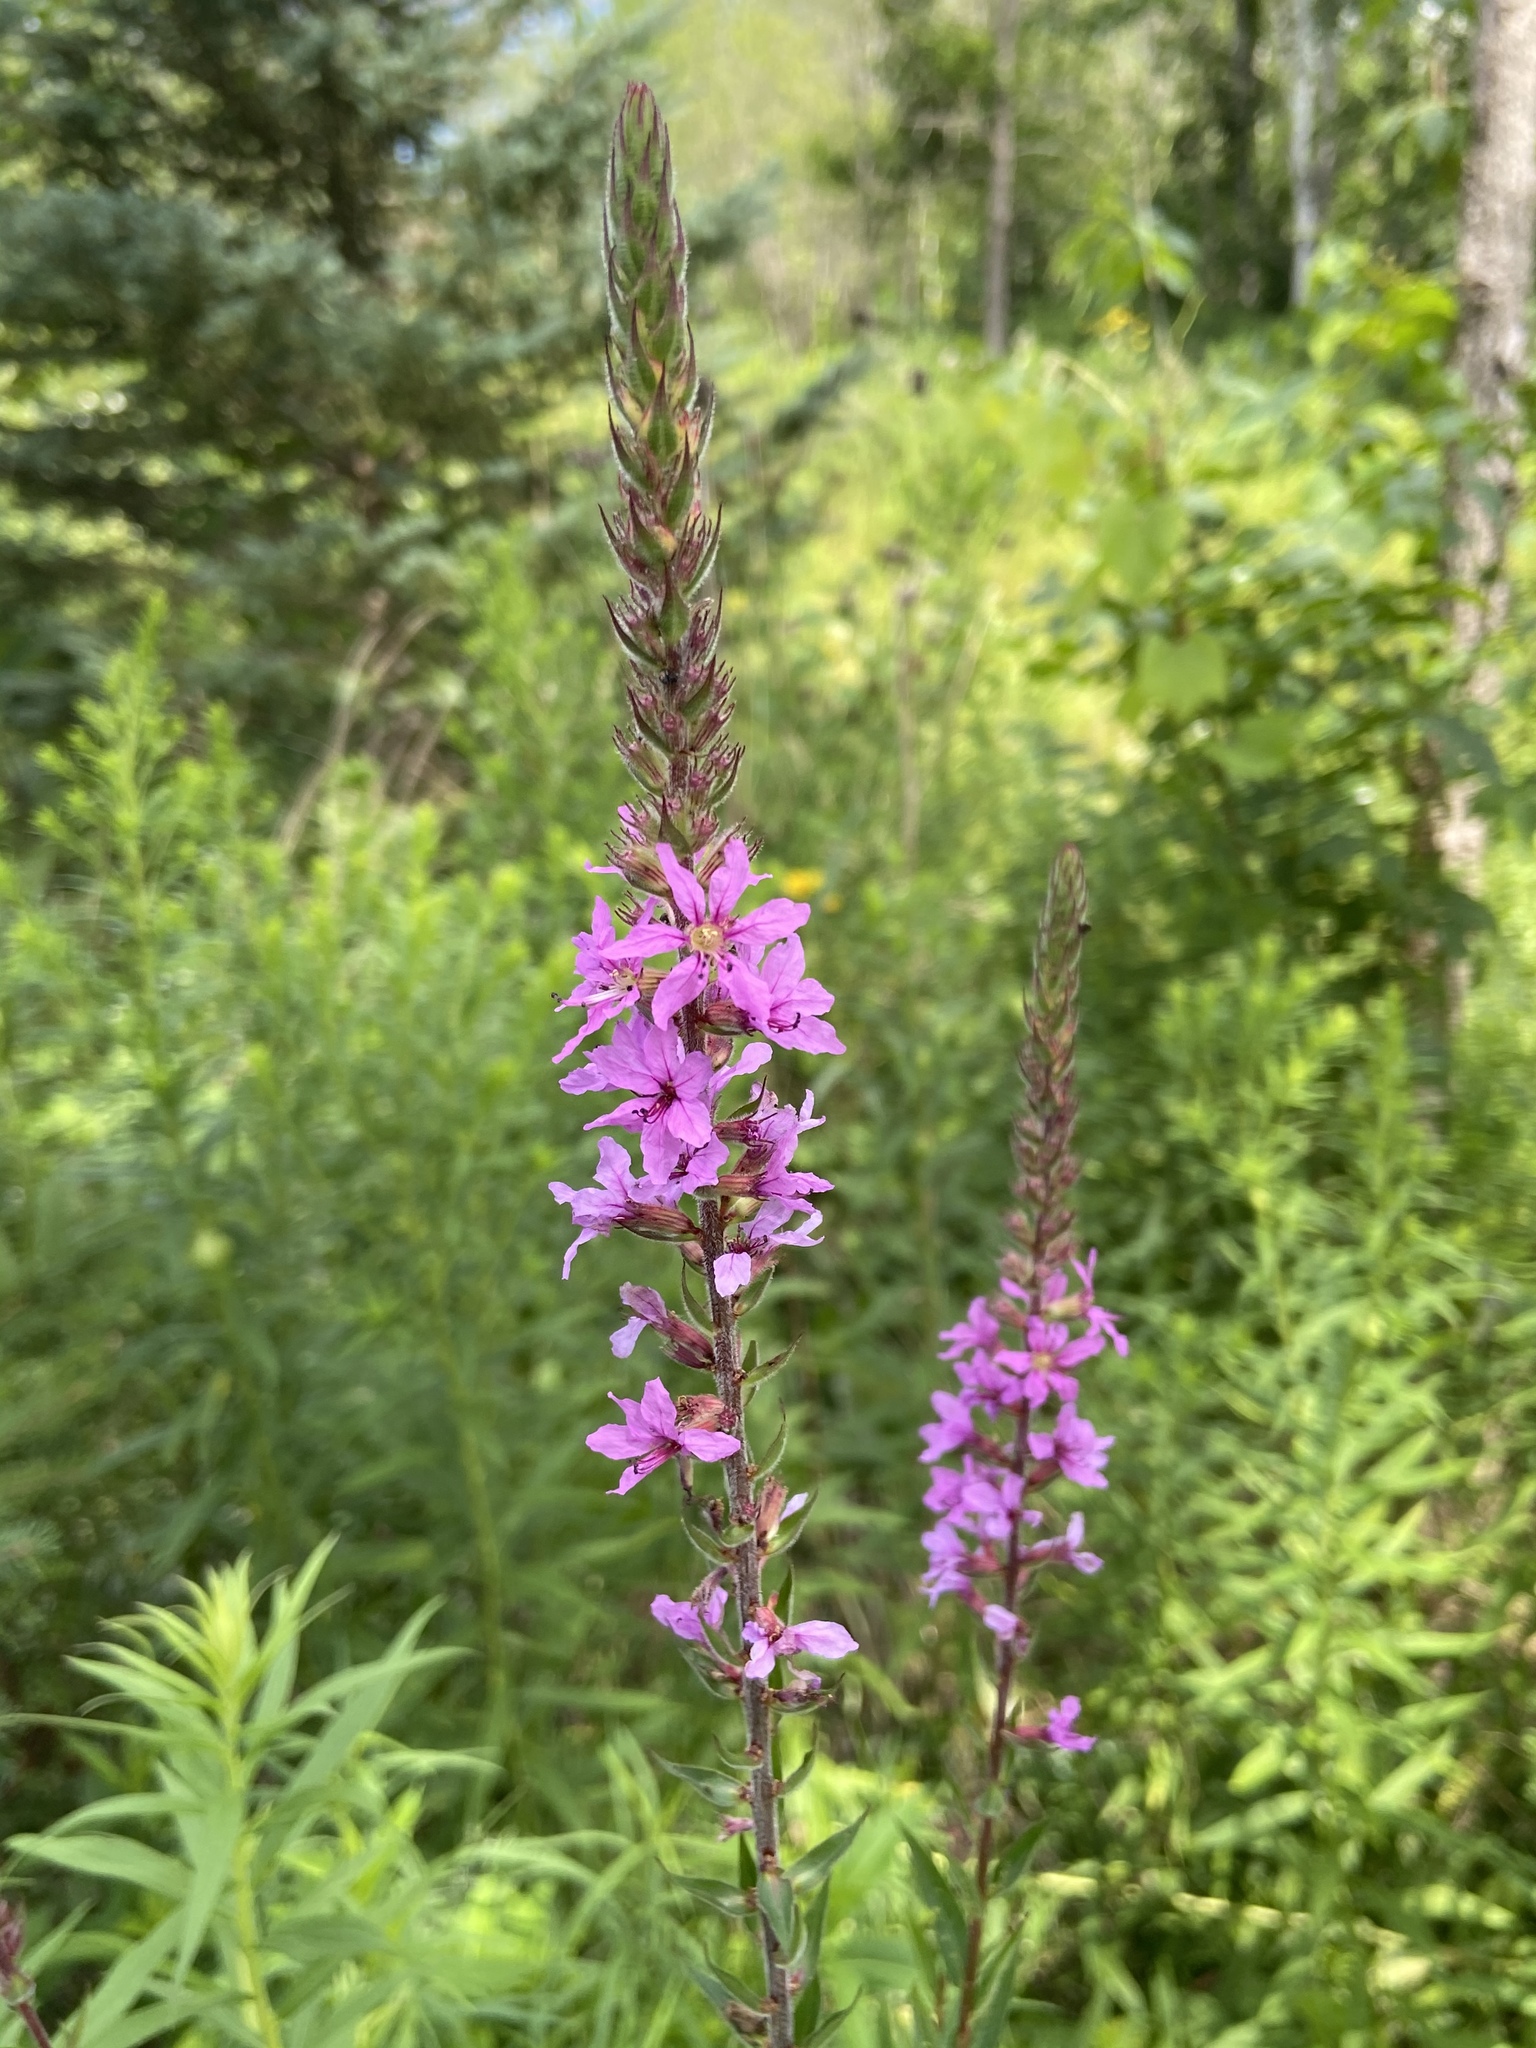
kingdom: Plantae
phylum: Tracheophyta
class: Magnoliopsida
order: Myrtales
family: Lythraceae
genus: Lythrum
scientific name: Lythrum salicaria
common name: Purple loosestrife
